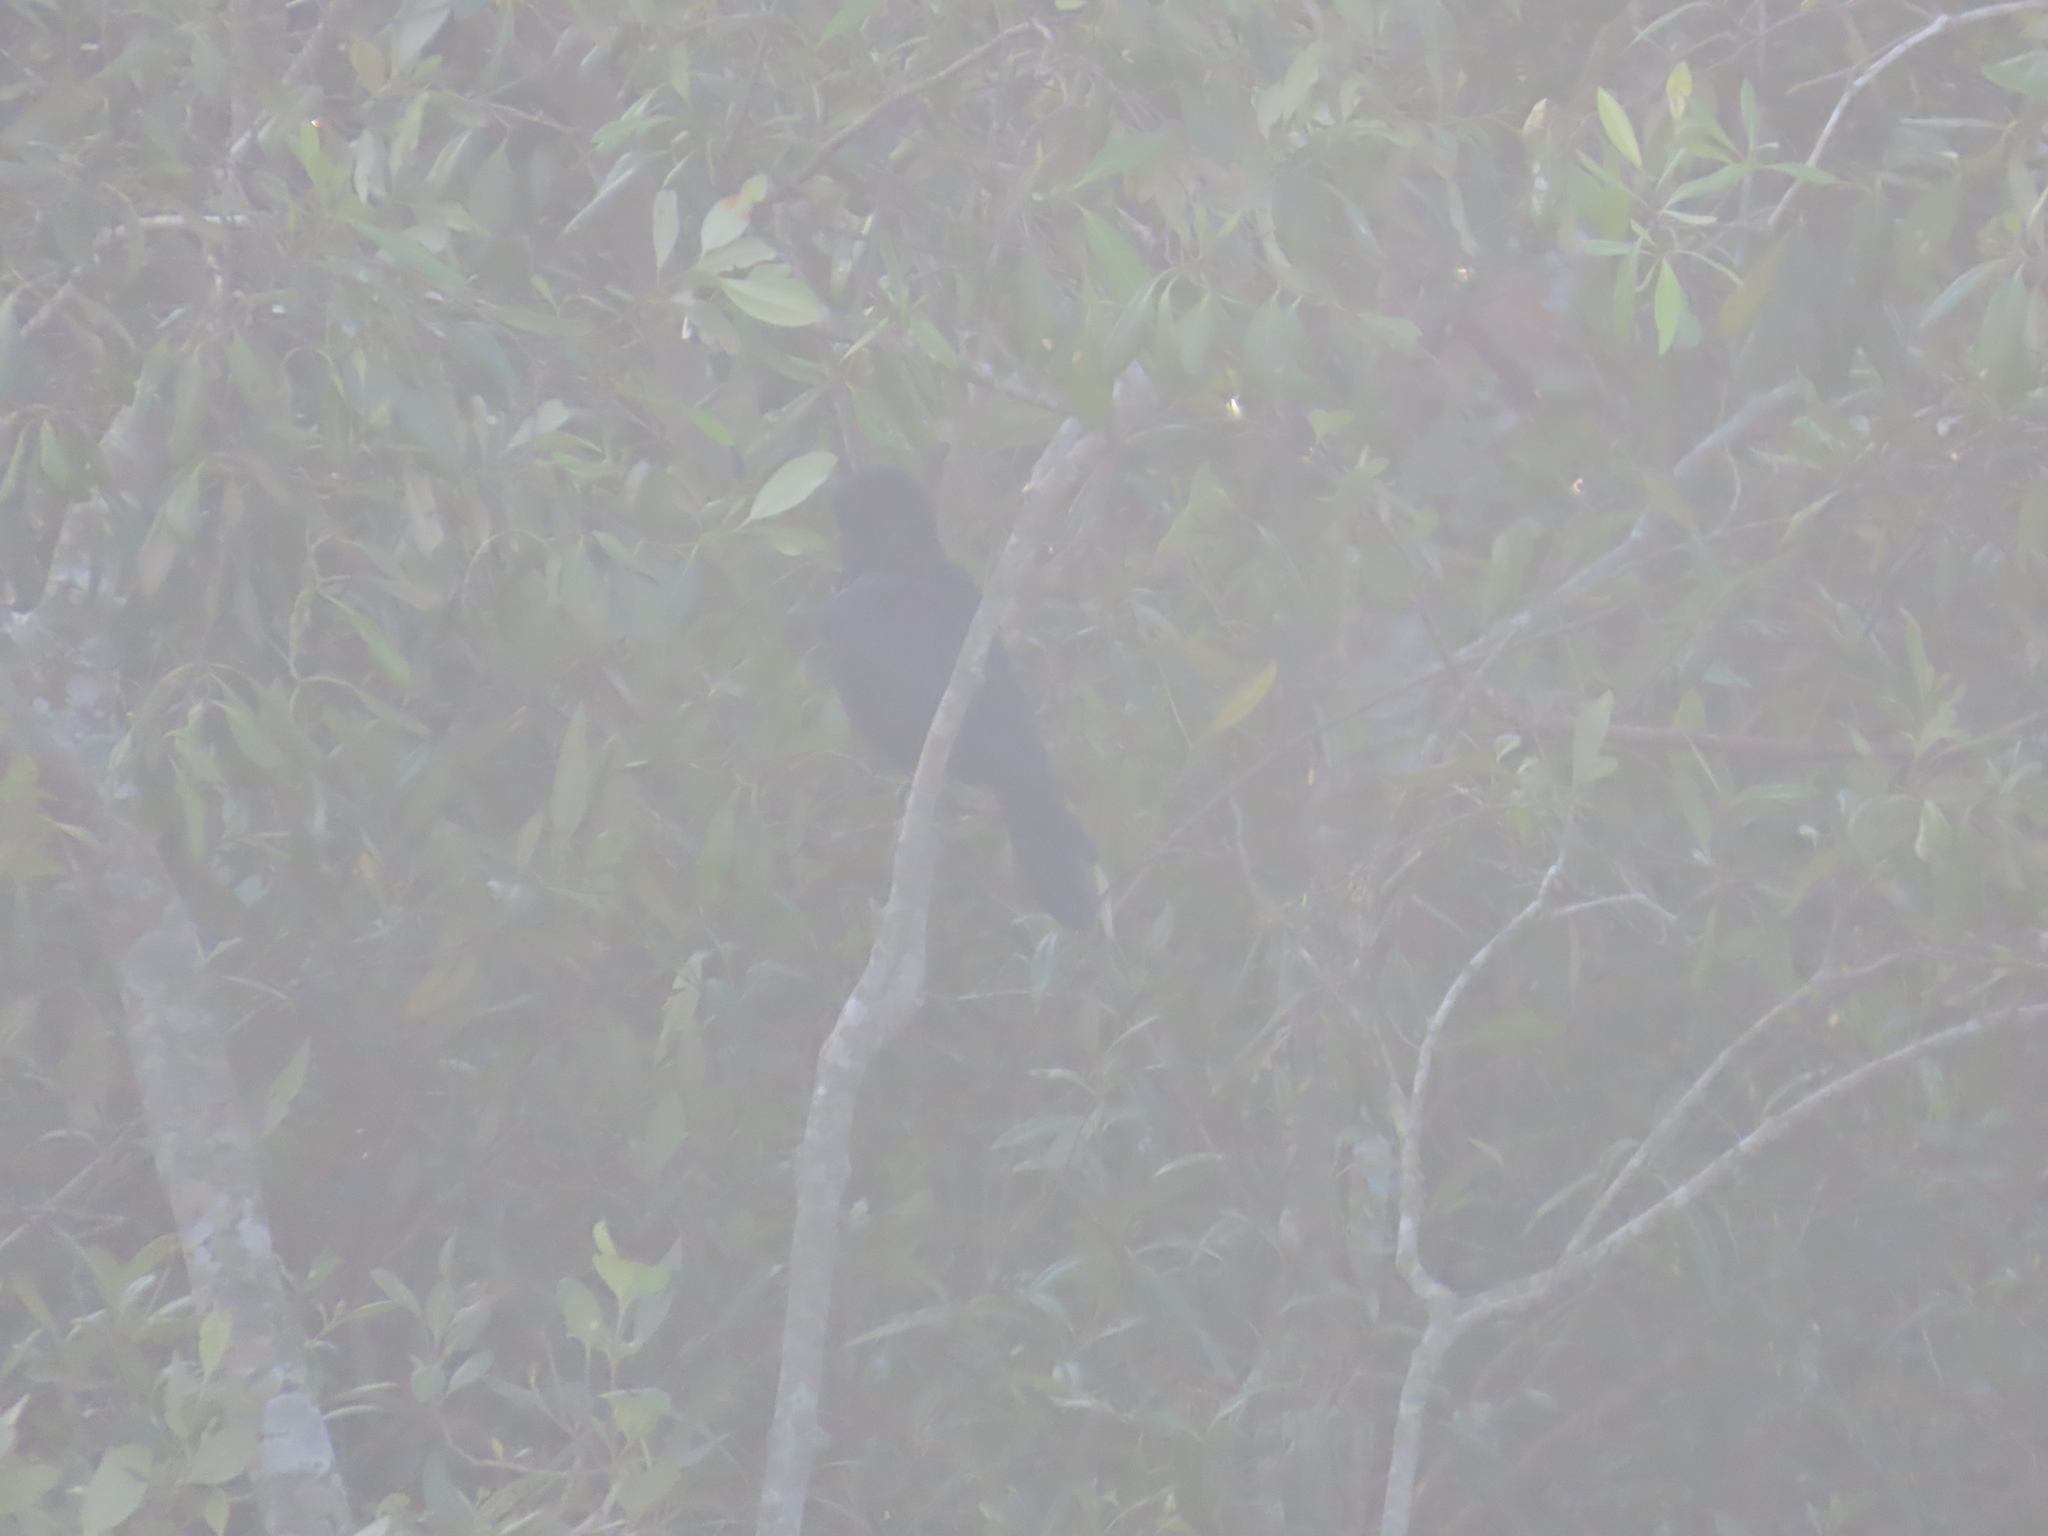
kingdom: Animalia
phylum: Chordata
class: Aves
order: Passeriformes
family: Corvidae
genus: Corvus
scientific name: Corvus splendens
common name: House crow
